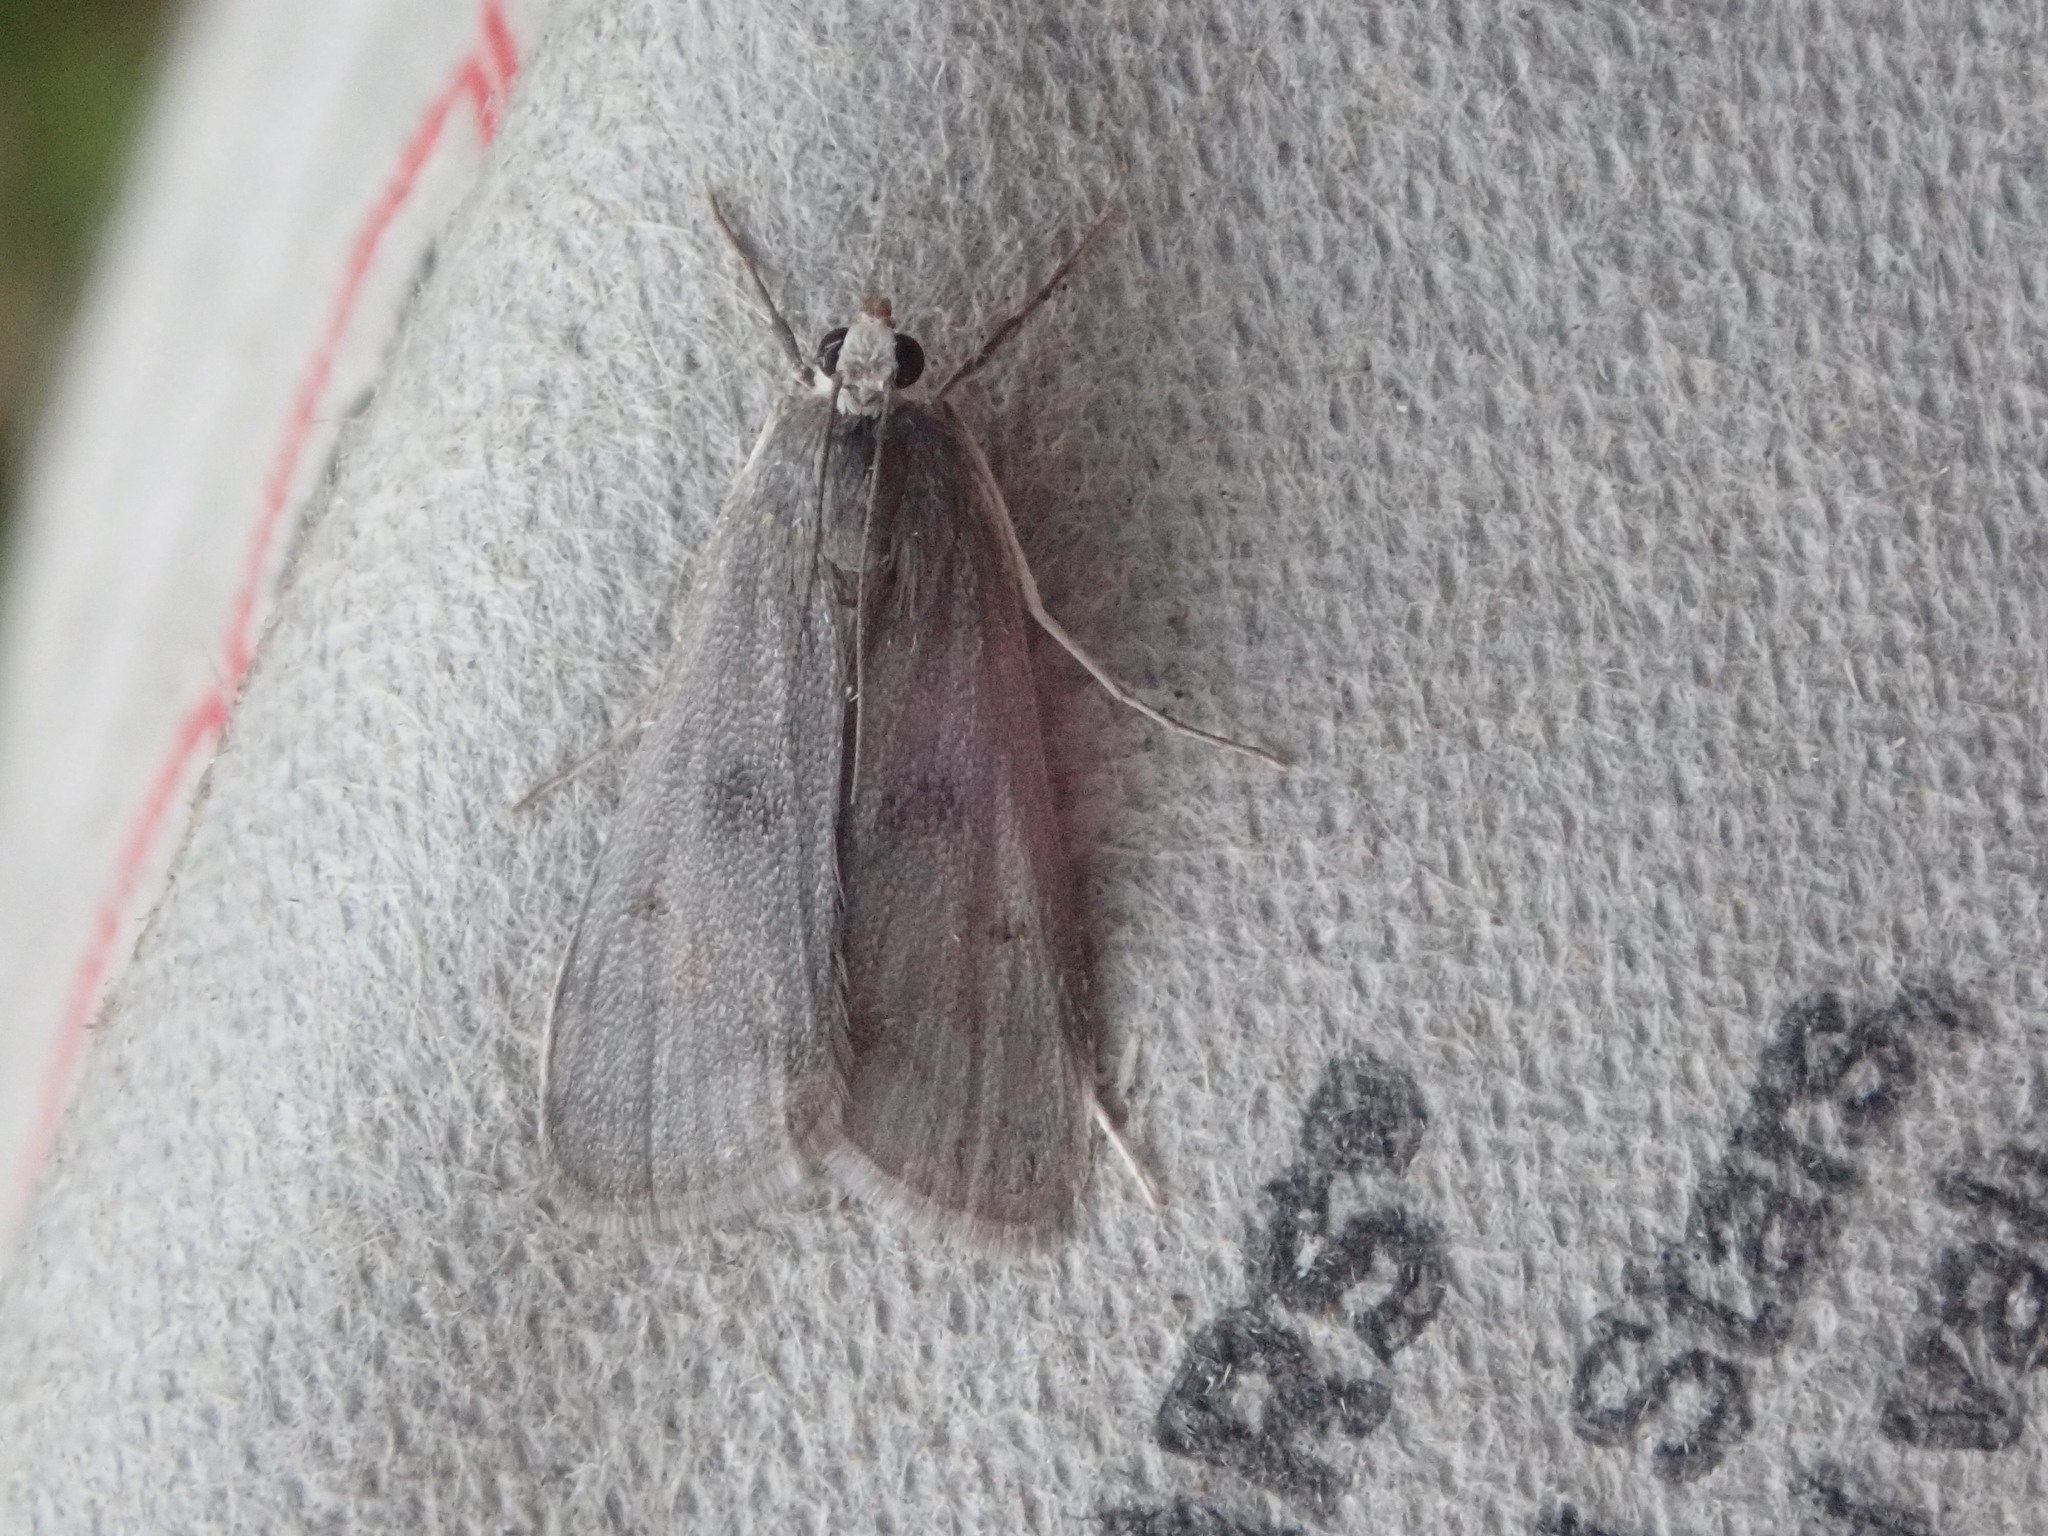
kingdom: Animalia
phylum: Arthropoda
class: Insecta
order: Lepidoptera
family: Crambidae
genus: Parapoynx
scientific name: Parapoynx maculalis
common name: Polymorphic pondweed moth
